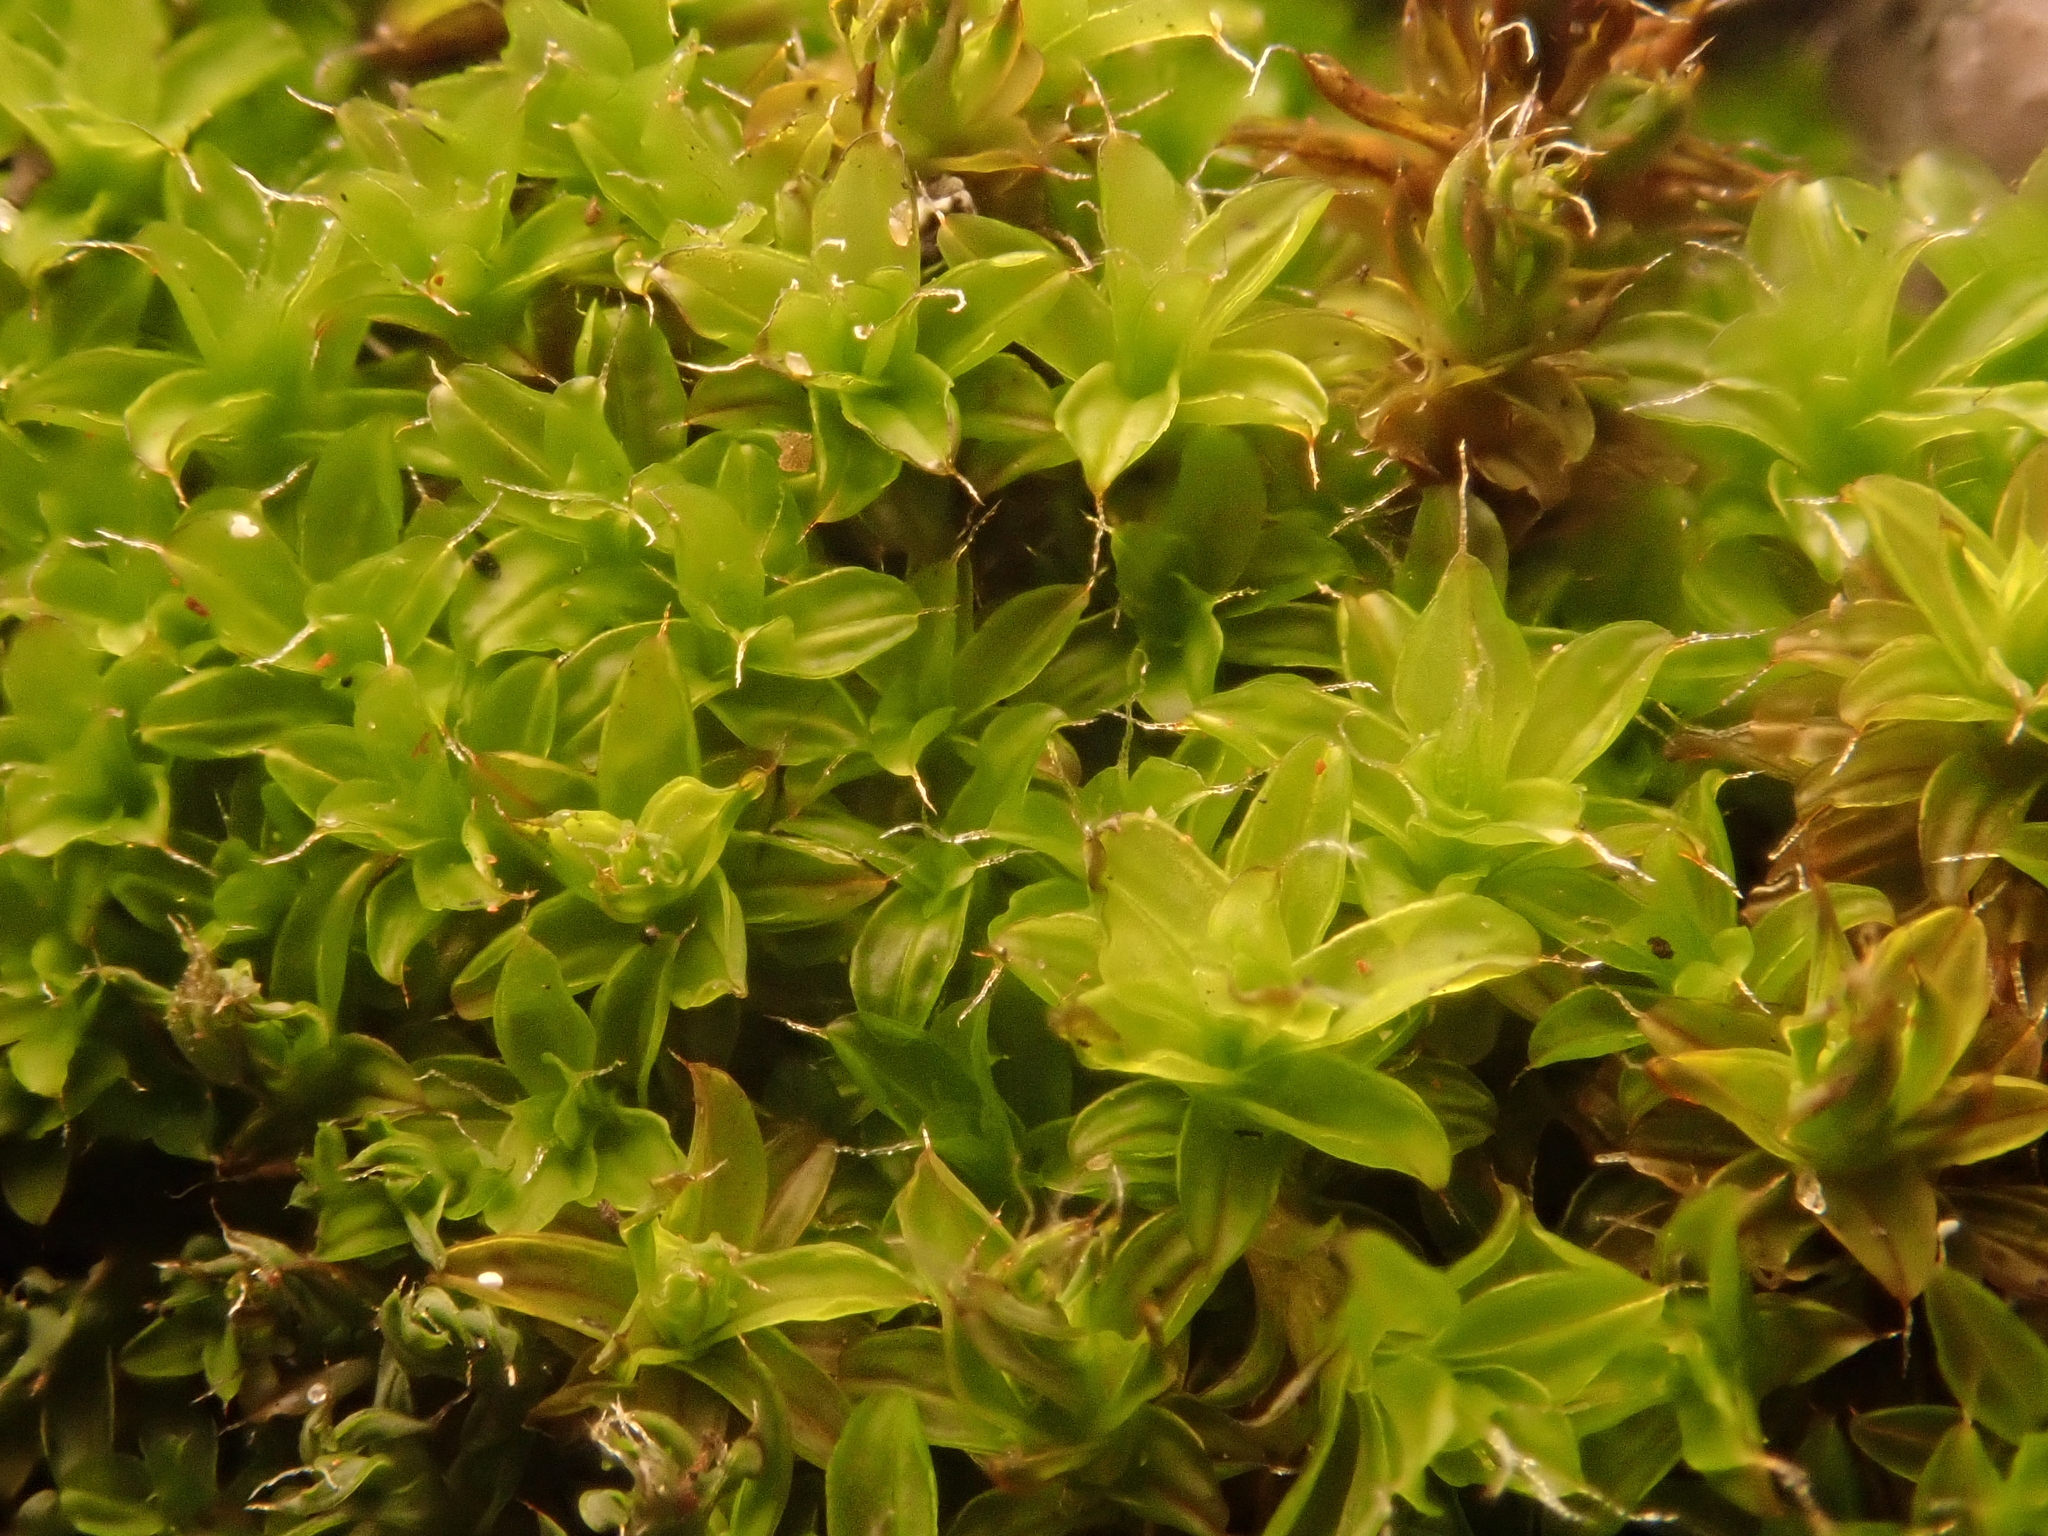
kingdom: Plantae
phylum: Bryophyta
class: Bryopsida
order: Pottiales
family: Pottiaceae
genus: Syntrichia
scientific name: Syntrichia ruralis
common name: Sidewalk screw moss
